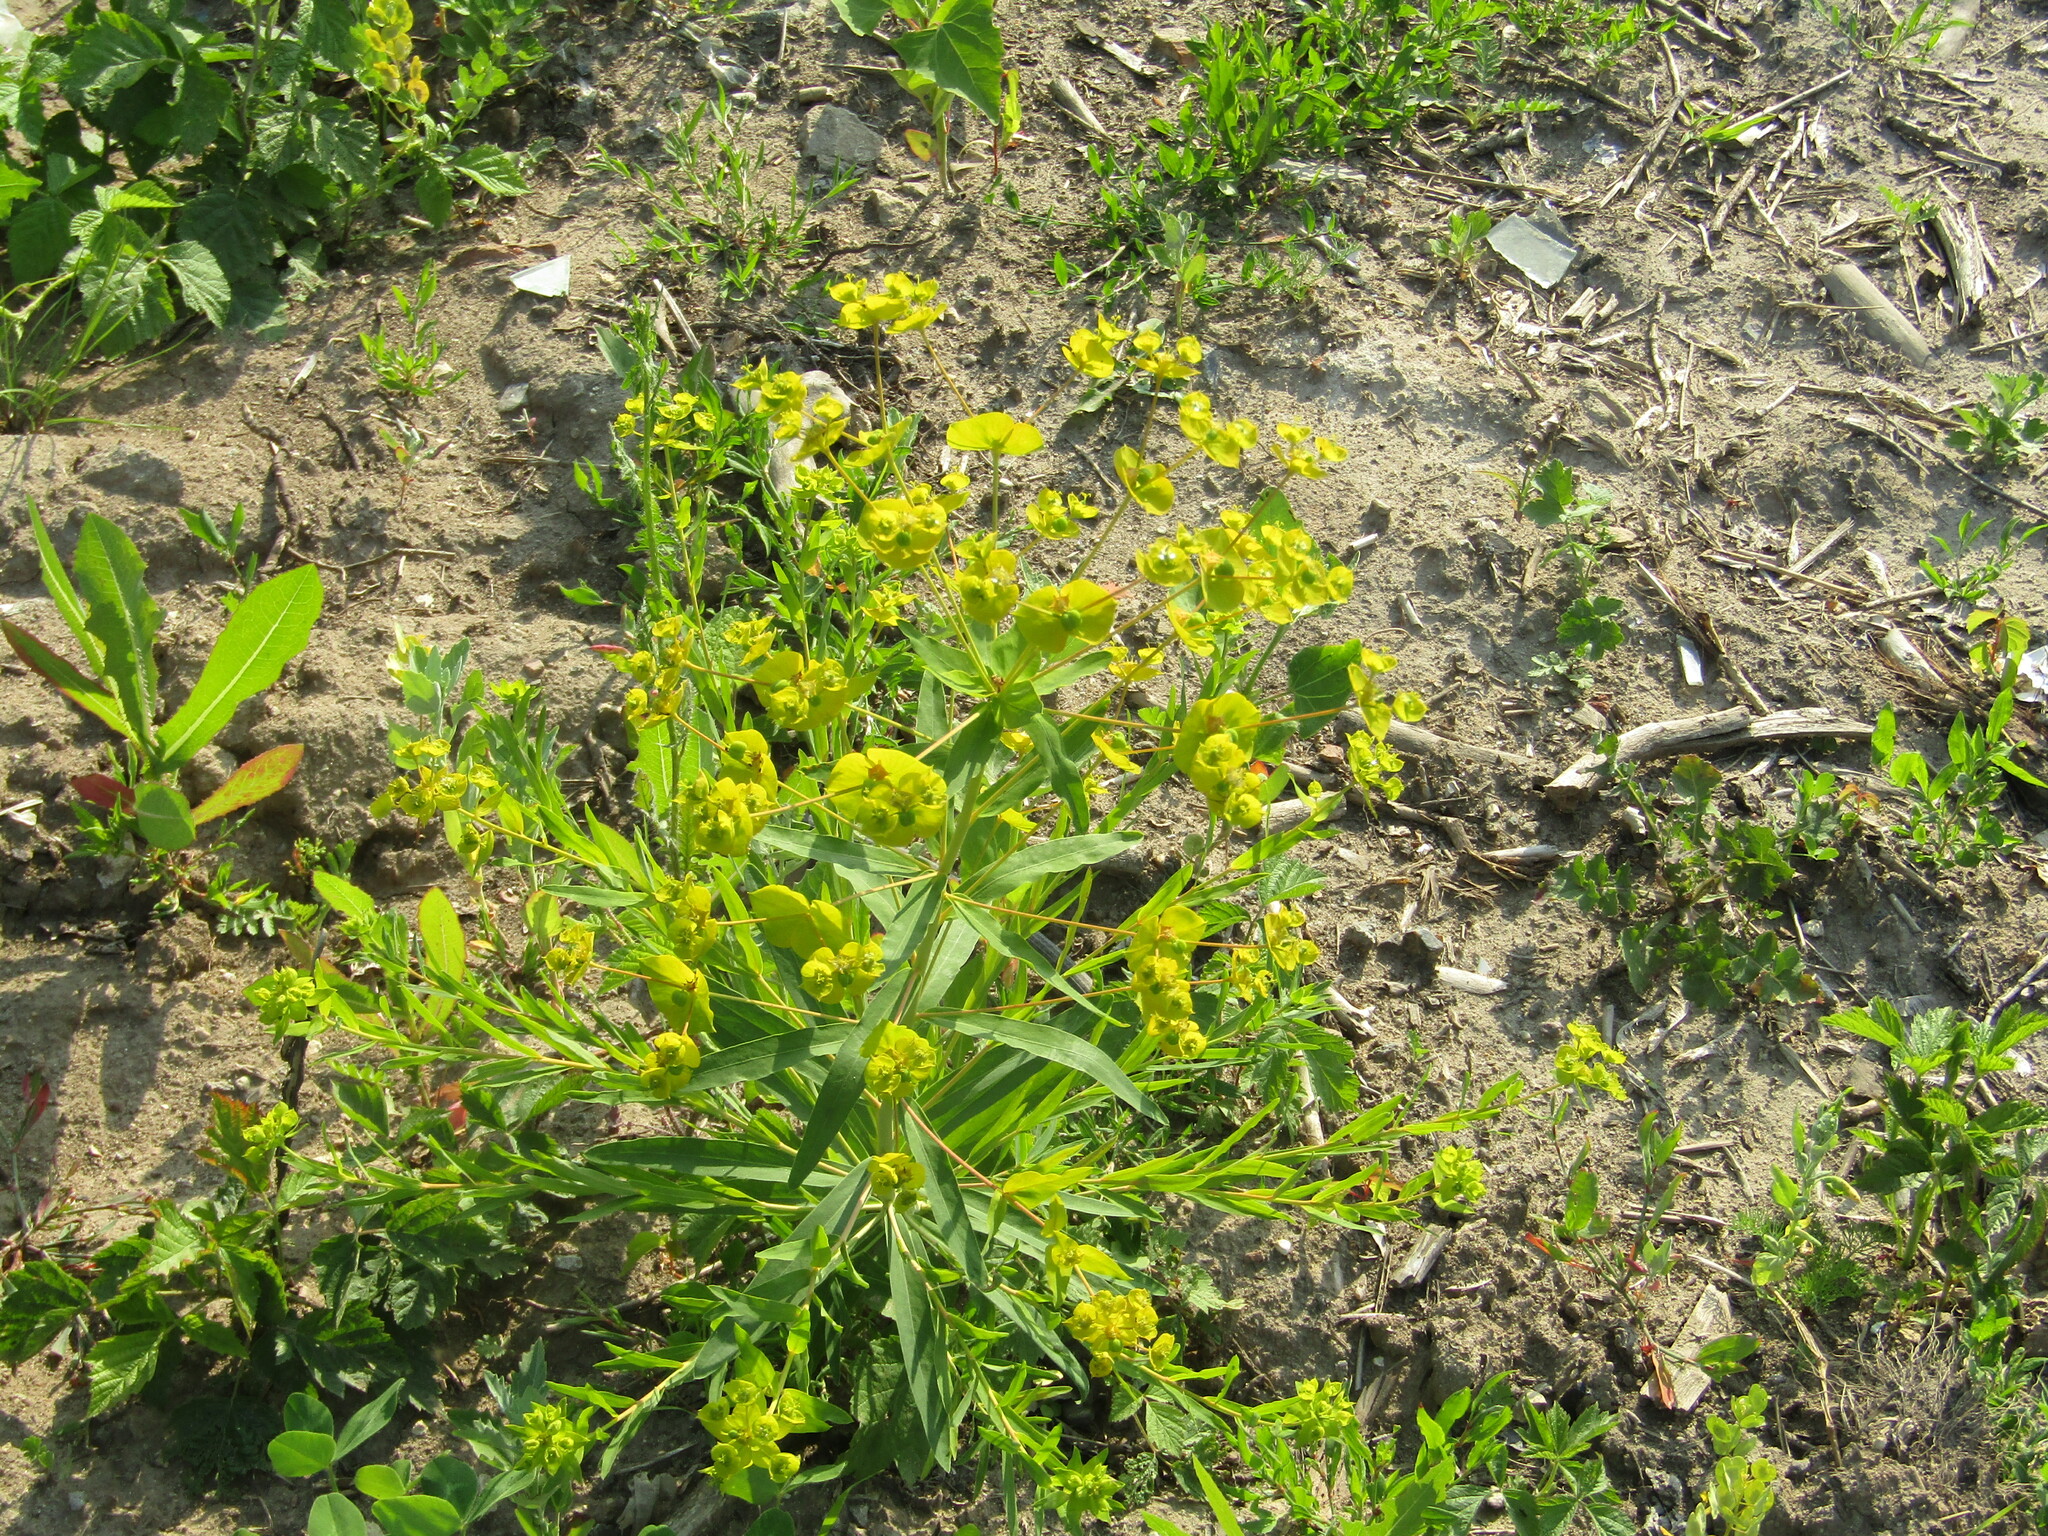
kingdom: Plantae
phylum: Tracheophyta
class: Magnoliopsida
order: Malpighiales
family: Euphorbiaceae
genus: Euphorbia
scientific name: Euphorbia virgata
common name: Leafy spurge
